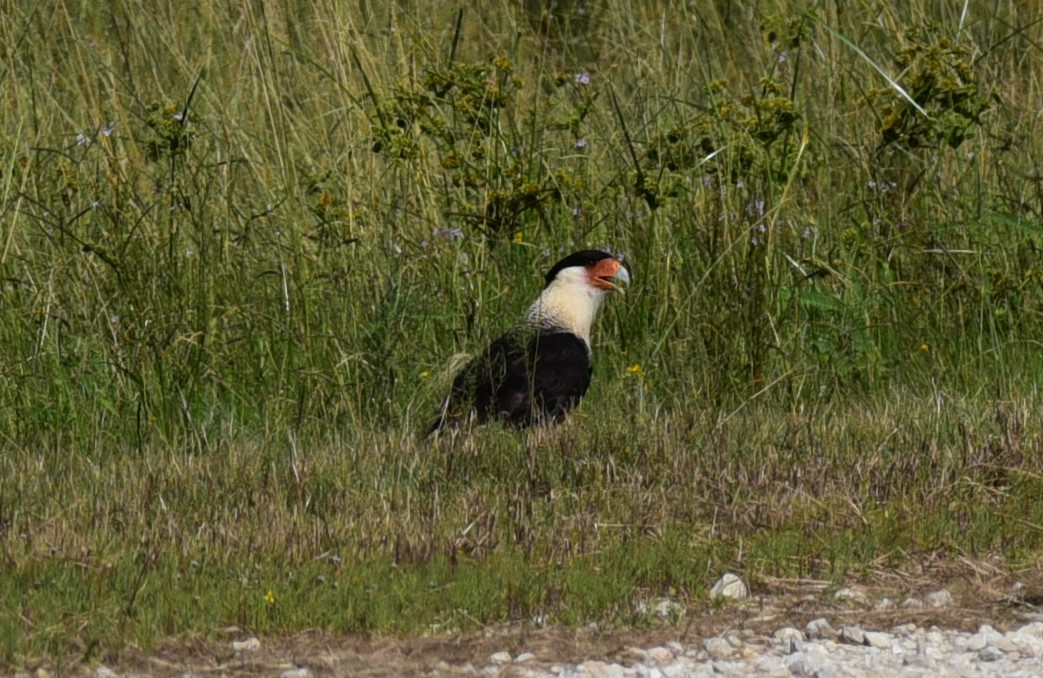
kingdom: Animalia
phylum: Chordata
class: Aves
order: Falconiformes
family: Falconidae
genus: Caracara
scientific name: Caracara plancus
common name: Southern caracara
